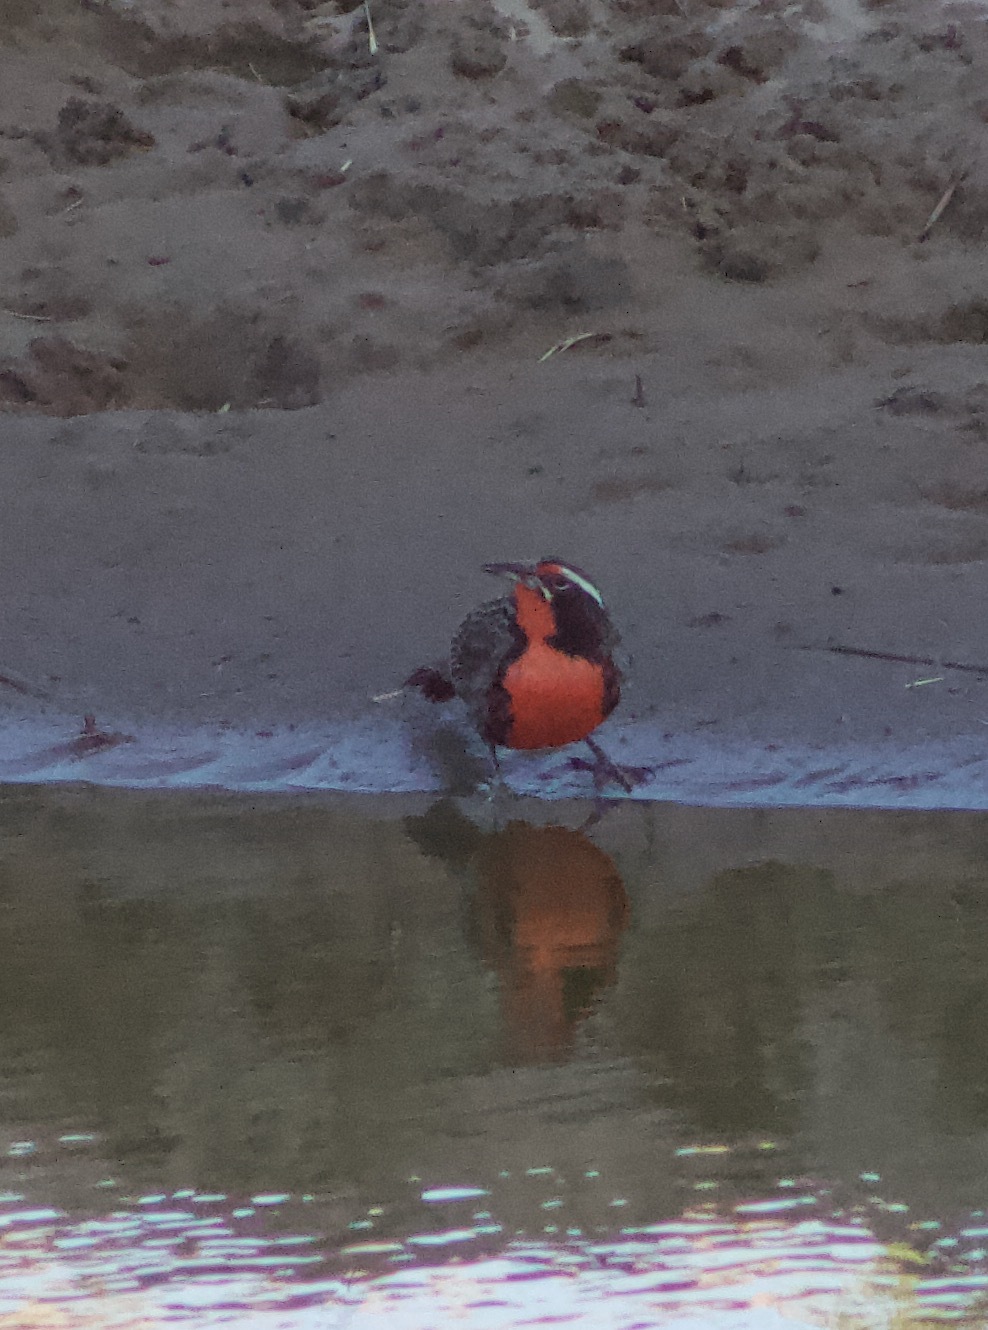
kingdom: Animalia
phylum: Chordata
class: Aves
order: Passeriformes
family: Icteridae
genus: Sturnella
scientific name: Sturnella loyca
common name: Long-tailed meadowlark
